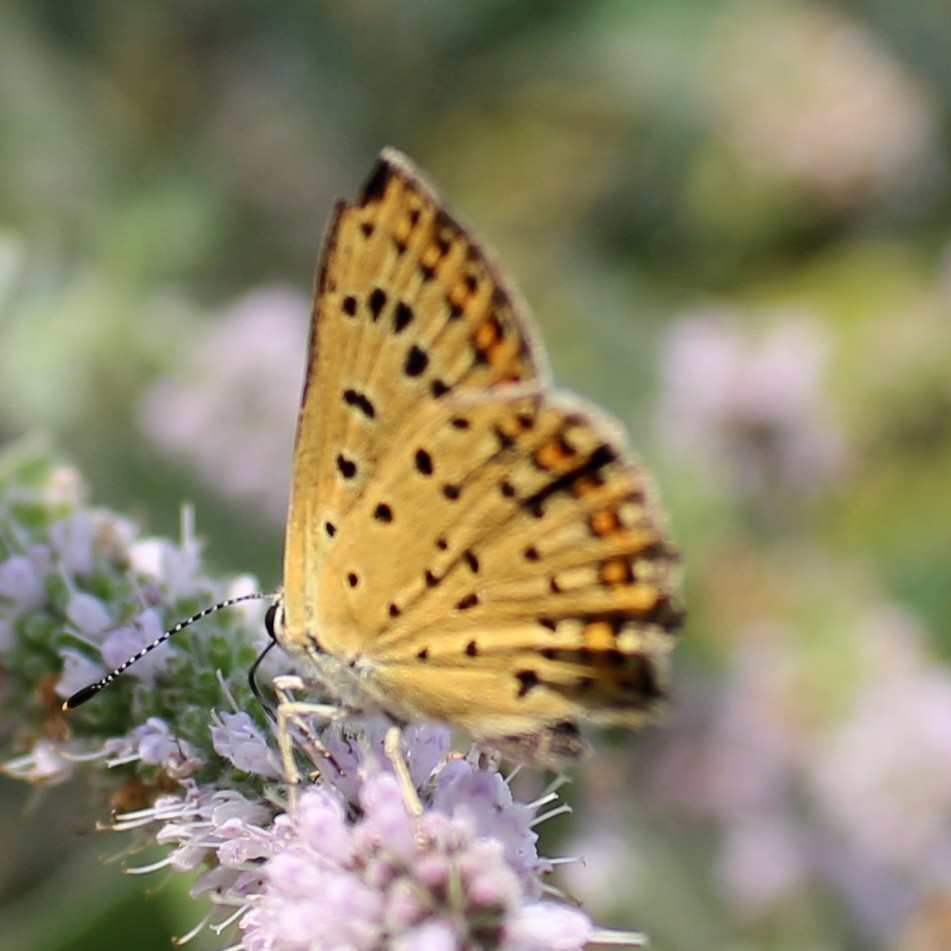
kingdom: Animalia
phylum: Arthropoda
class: Insecta
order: Lepidoptera
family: Lycaenidae
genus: Loweia
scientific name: Loweia tityrus
